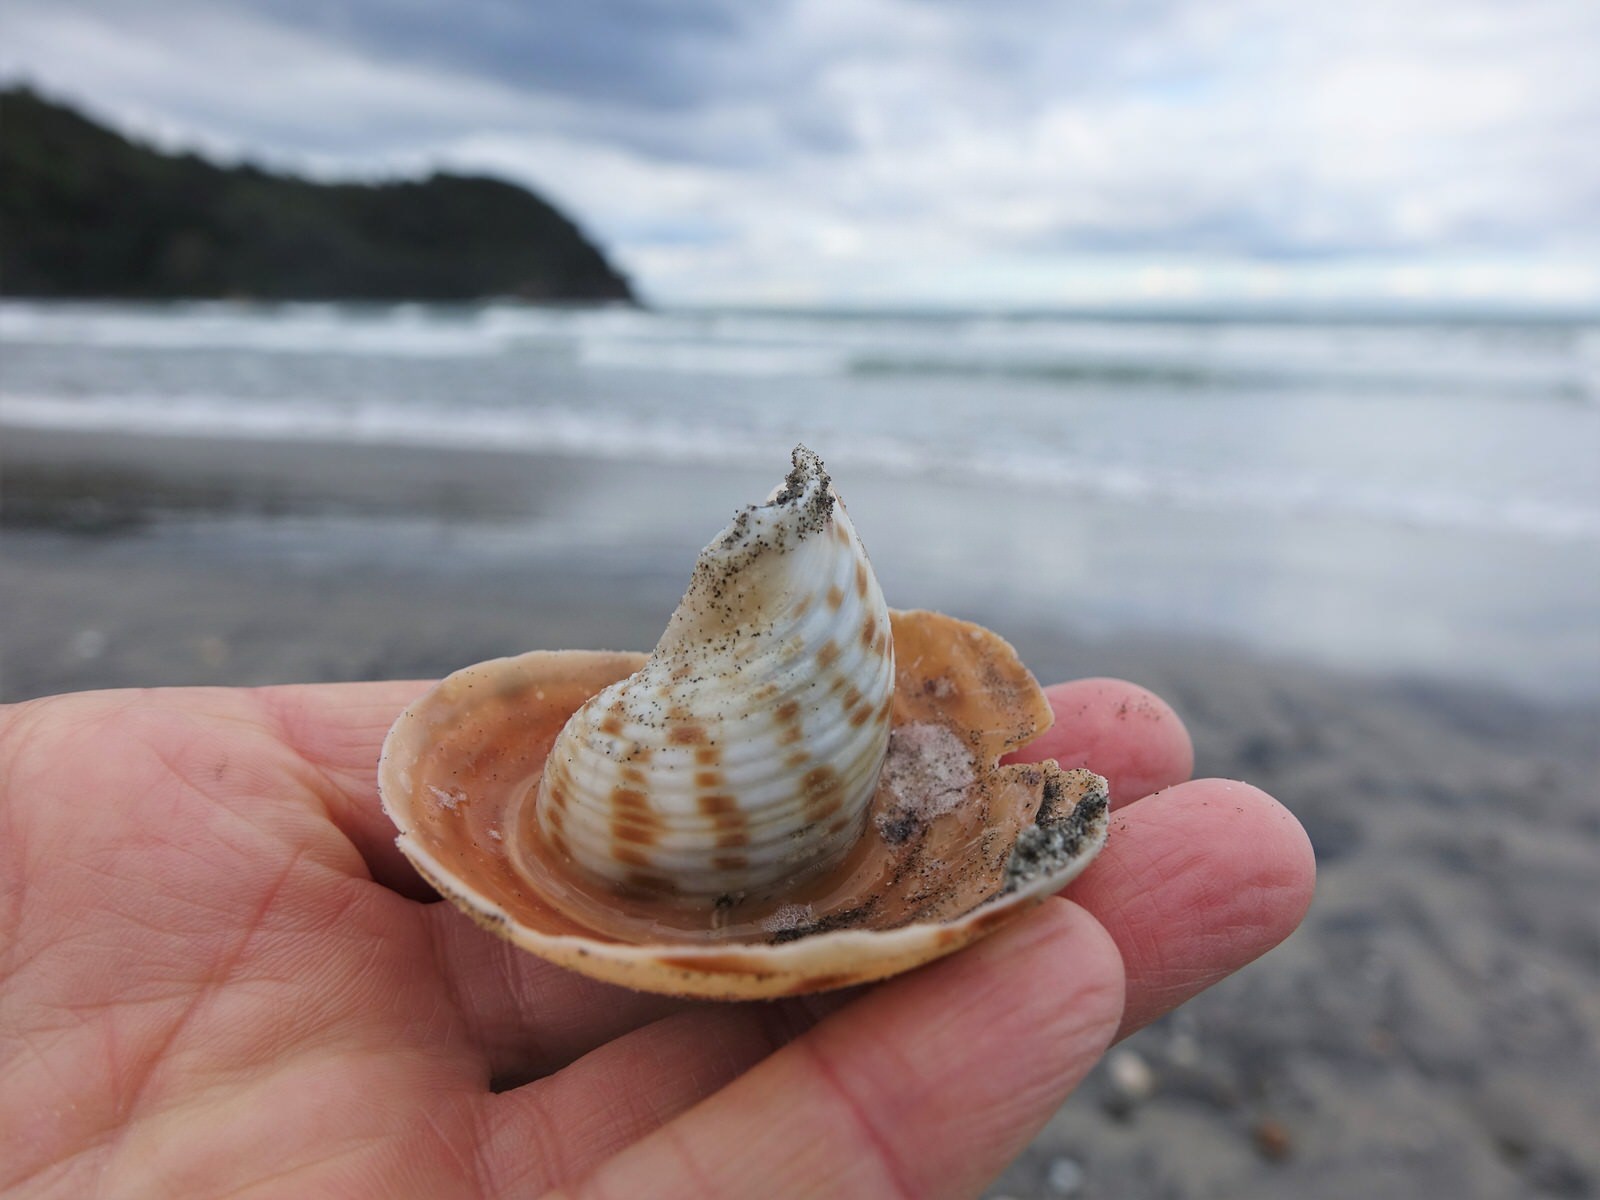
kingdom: Animalia
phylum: Mollusca
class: Gastropoda
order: Littorinimorpha
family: Tonnidae
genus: Tonna
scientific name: Tonna tankervillii
